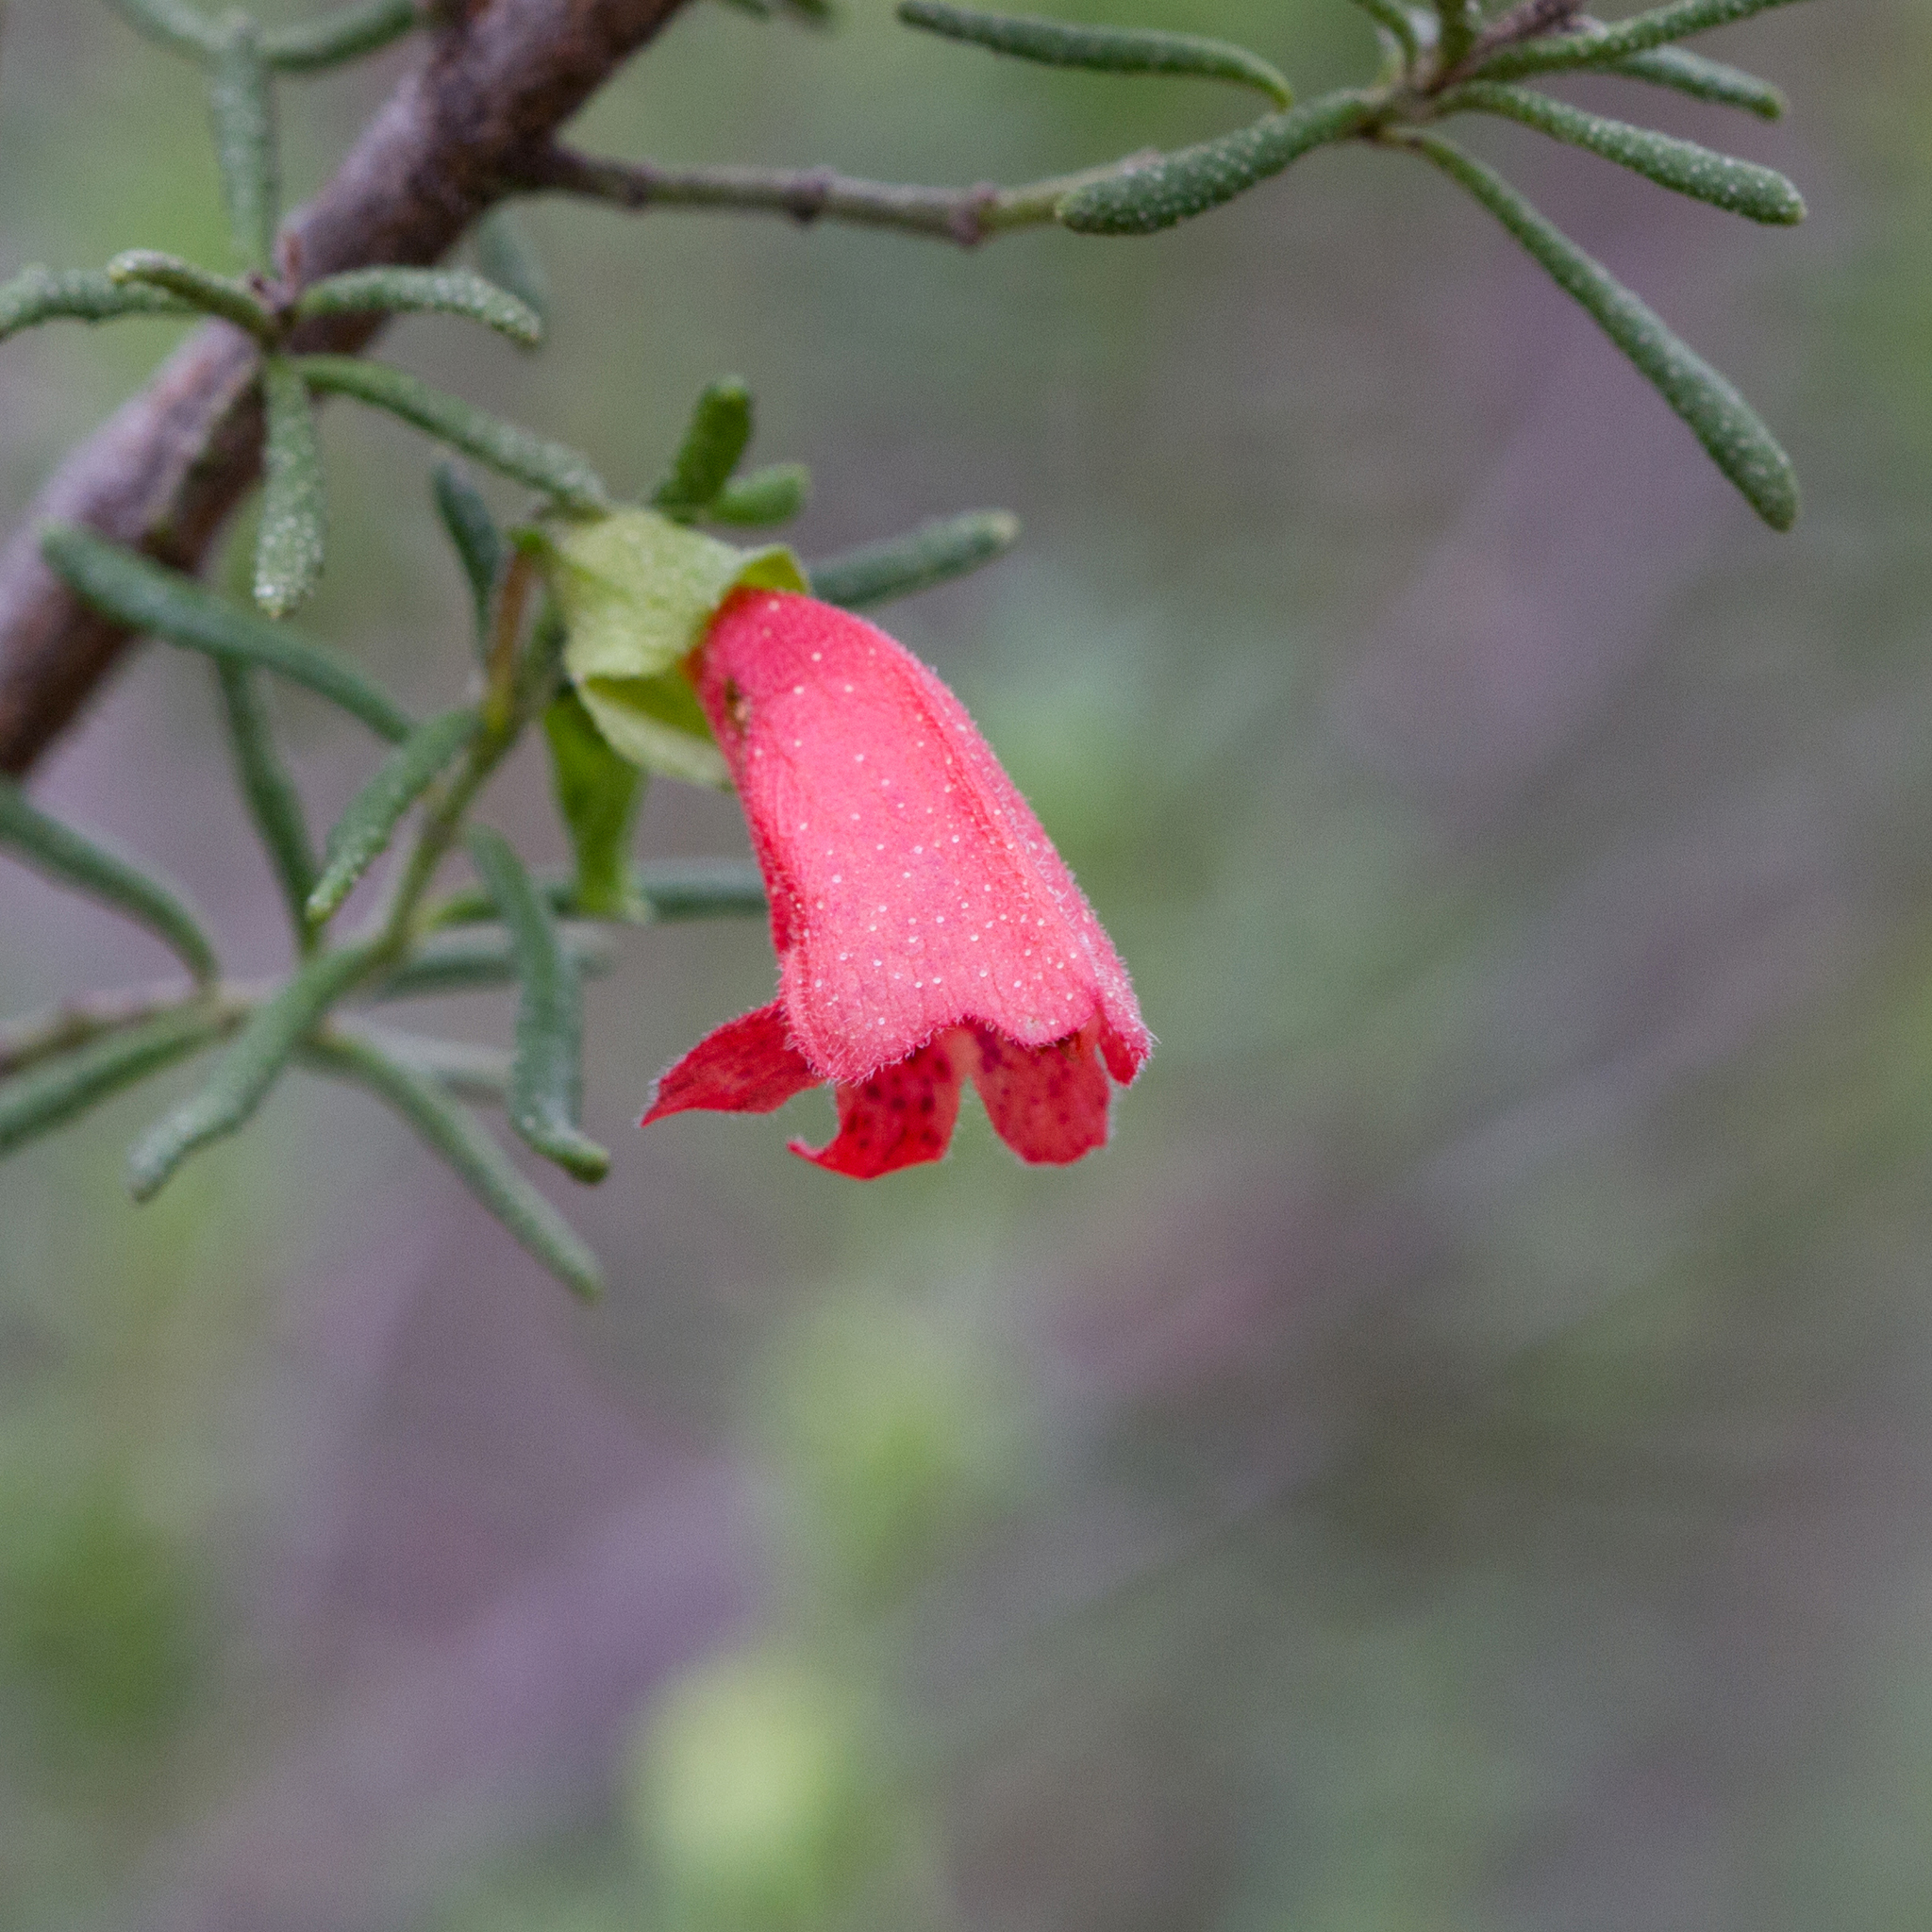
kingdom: Plantae
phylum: Tracheophyta
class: Magnoliopsida
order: Lamiales
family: Lamiaceae
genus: Prostanthera
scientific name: Prostanthera aspalathoides
